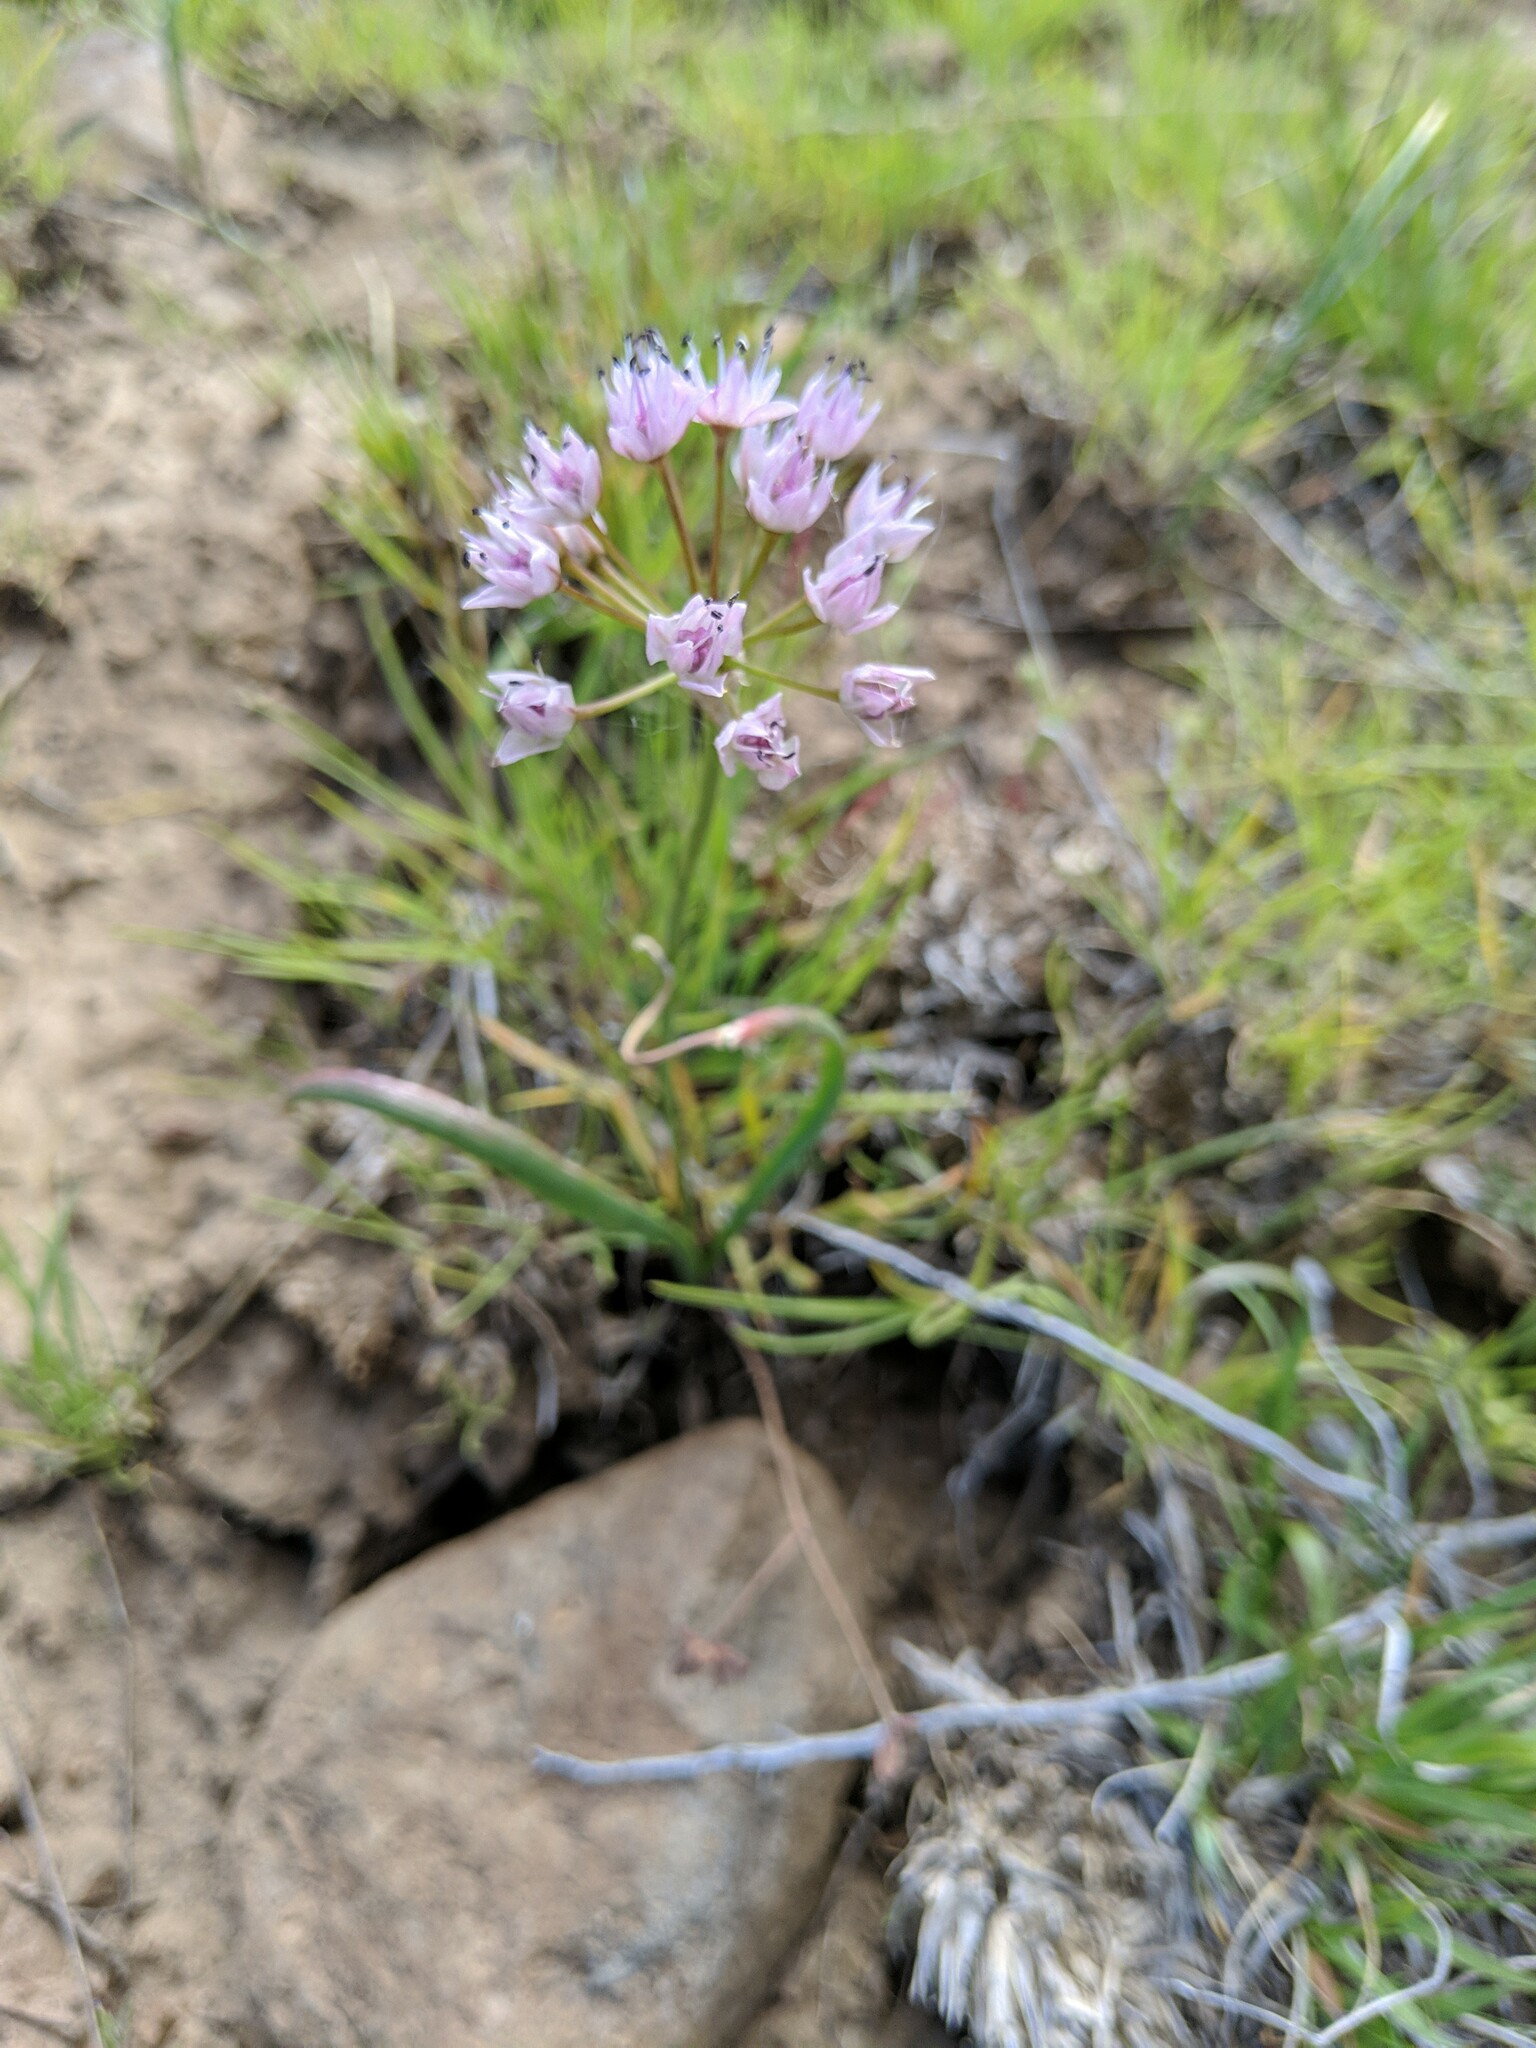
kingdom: Plantae
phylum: Tracheophyta
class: Liliopsida
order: Asparagales
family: Amaryllidaceae
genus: Allium
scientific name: Allium nevii
